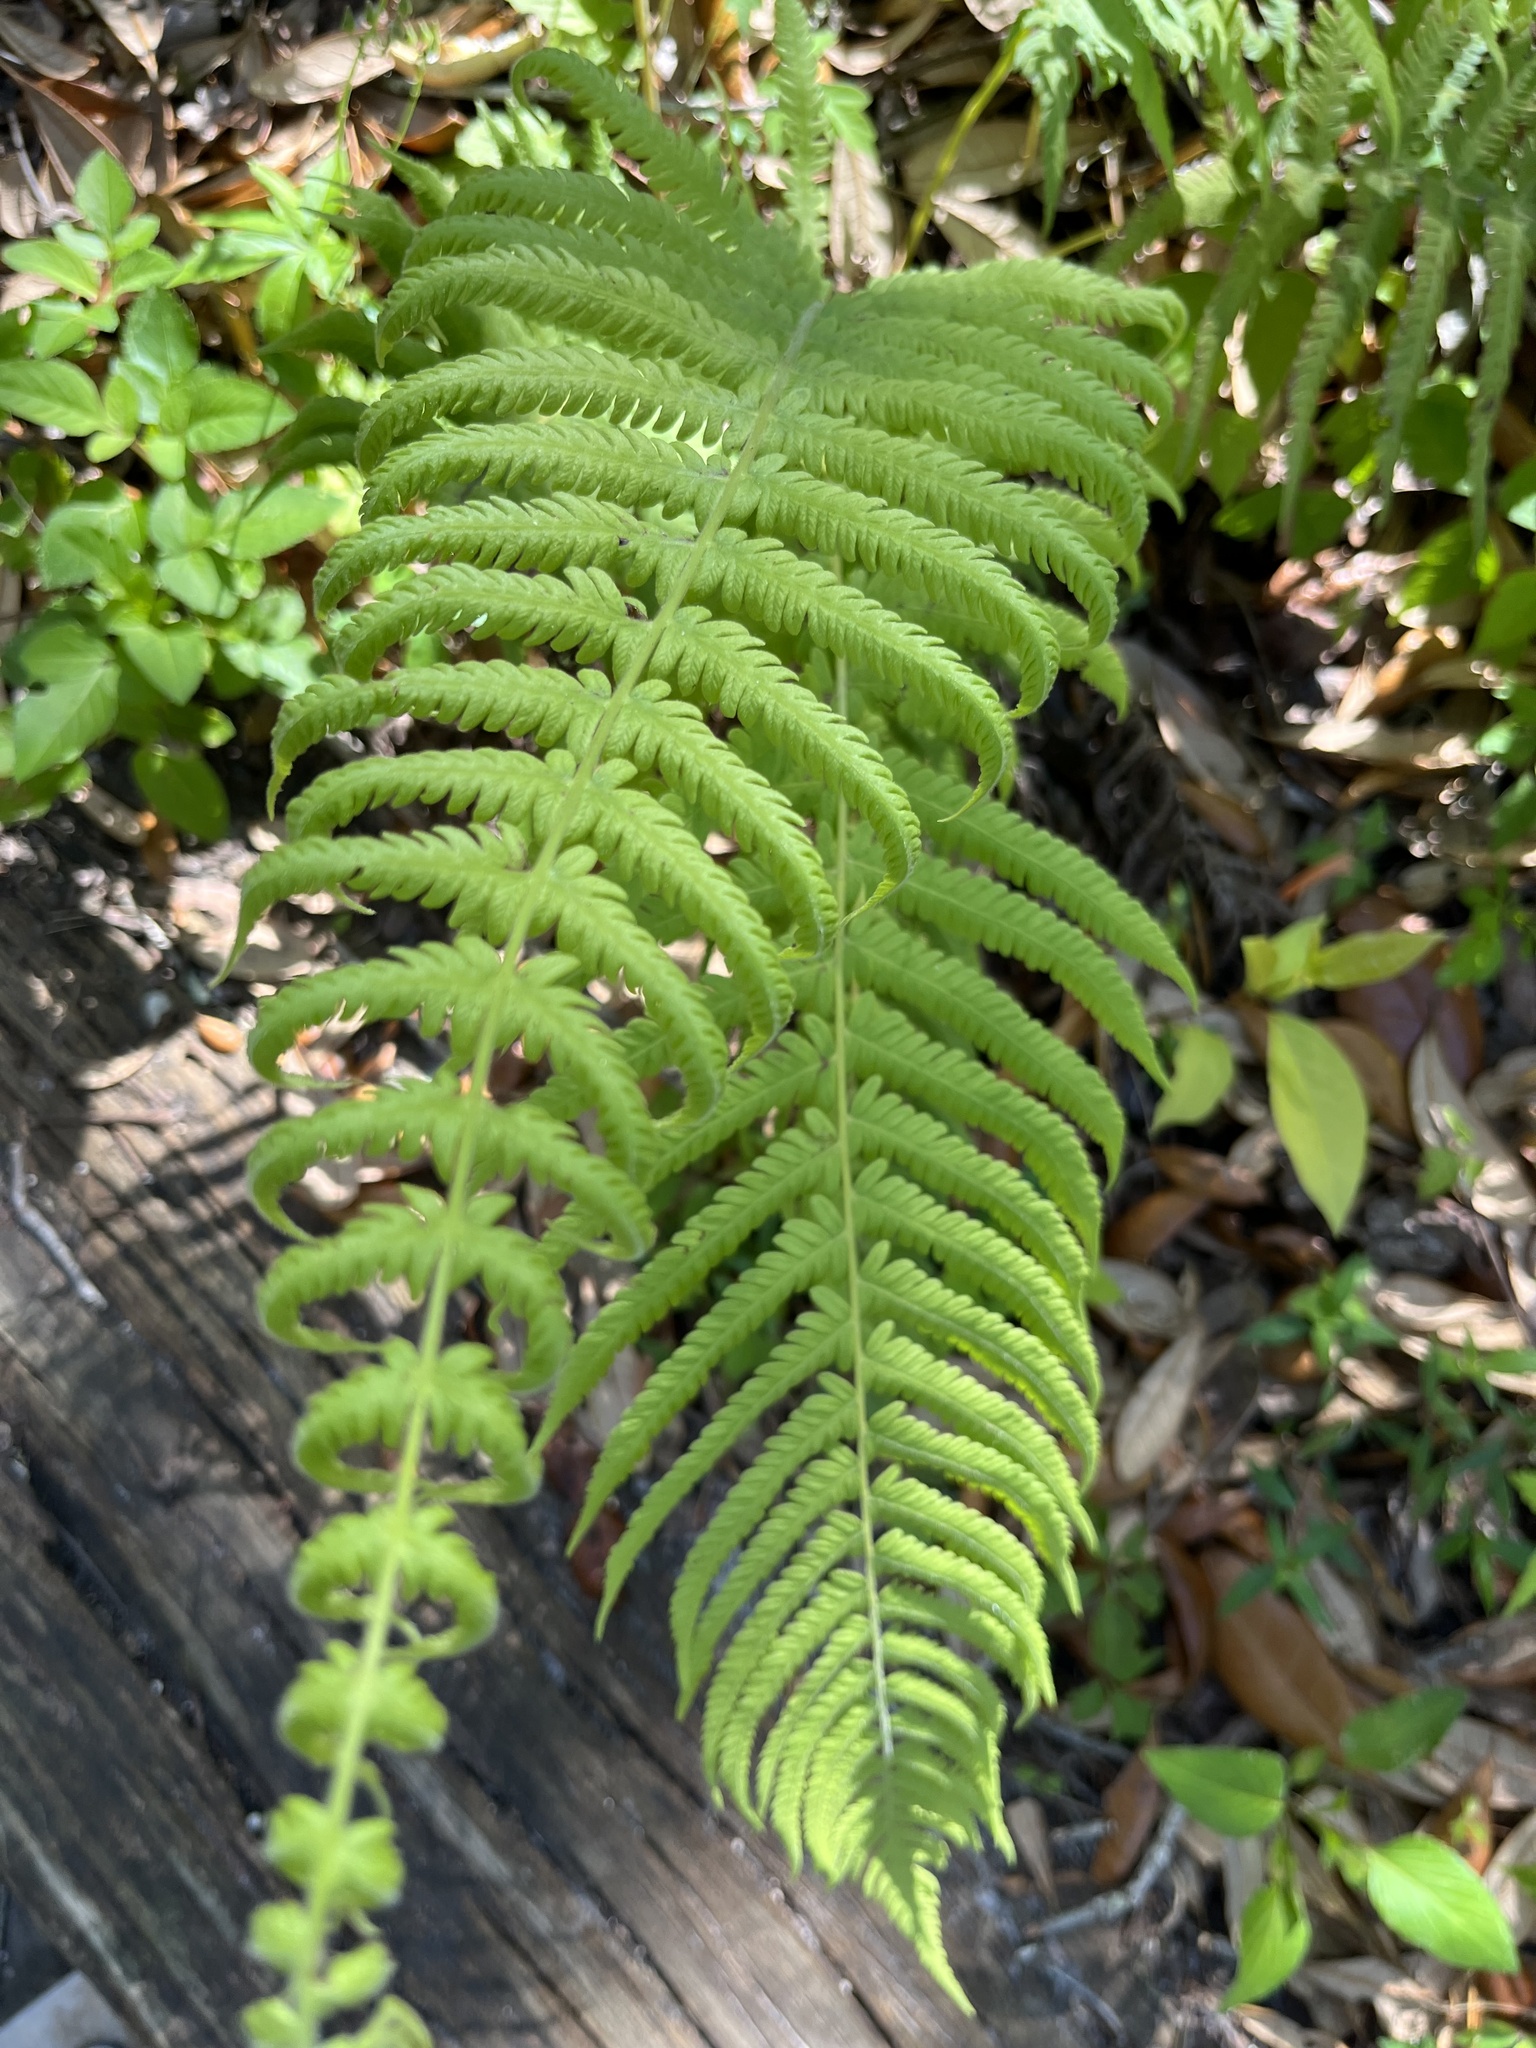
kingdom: Plantae
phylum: Tracheophyta
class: Polypodiopsida
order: Polypodiales
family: Thelypteridaceae
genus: Pelazoneuron
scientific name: Pelazoneuron kunthii
